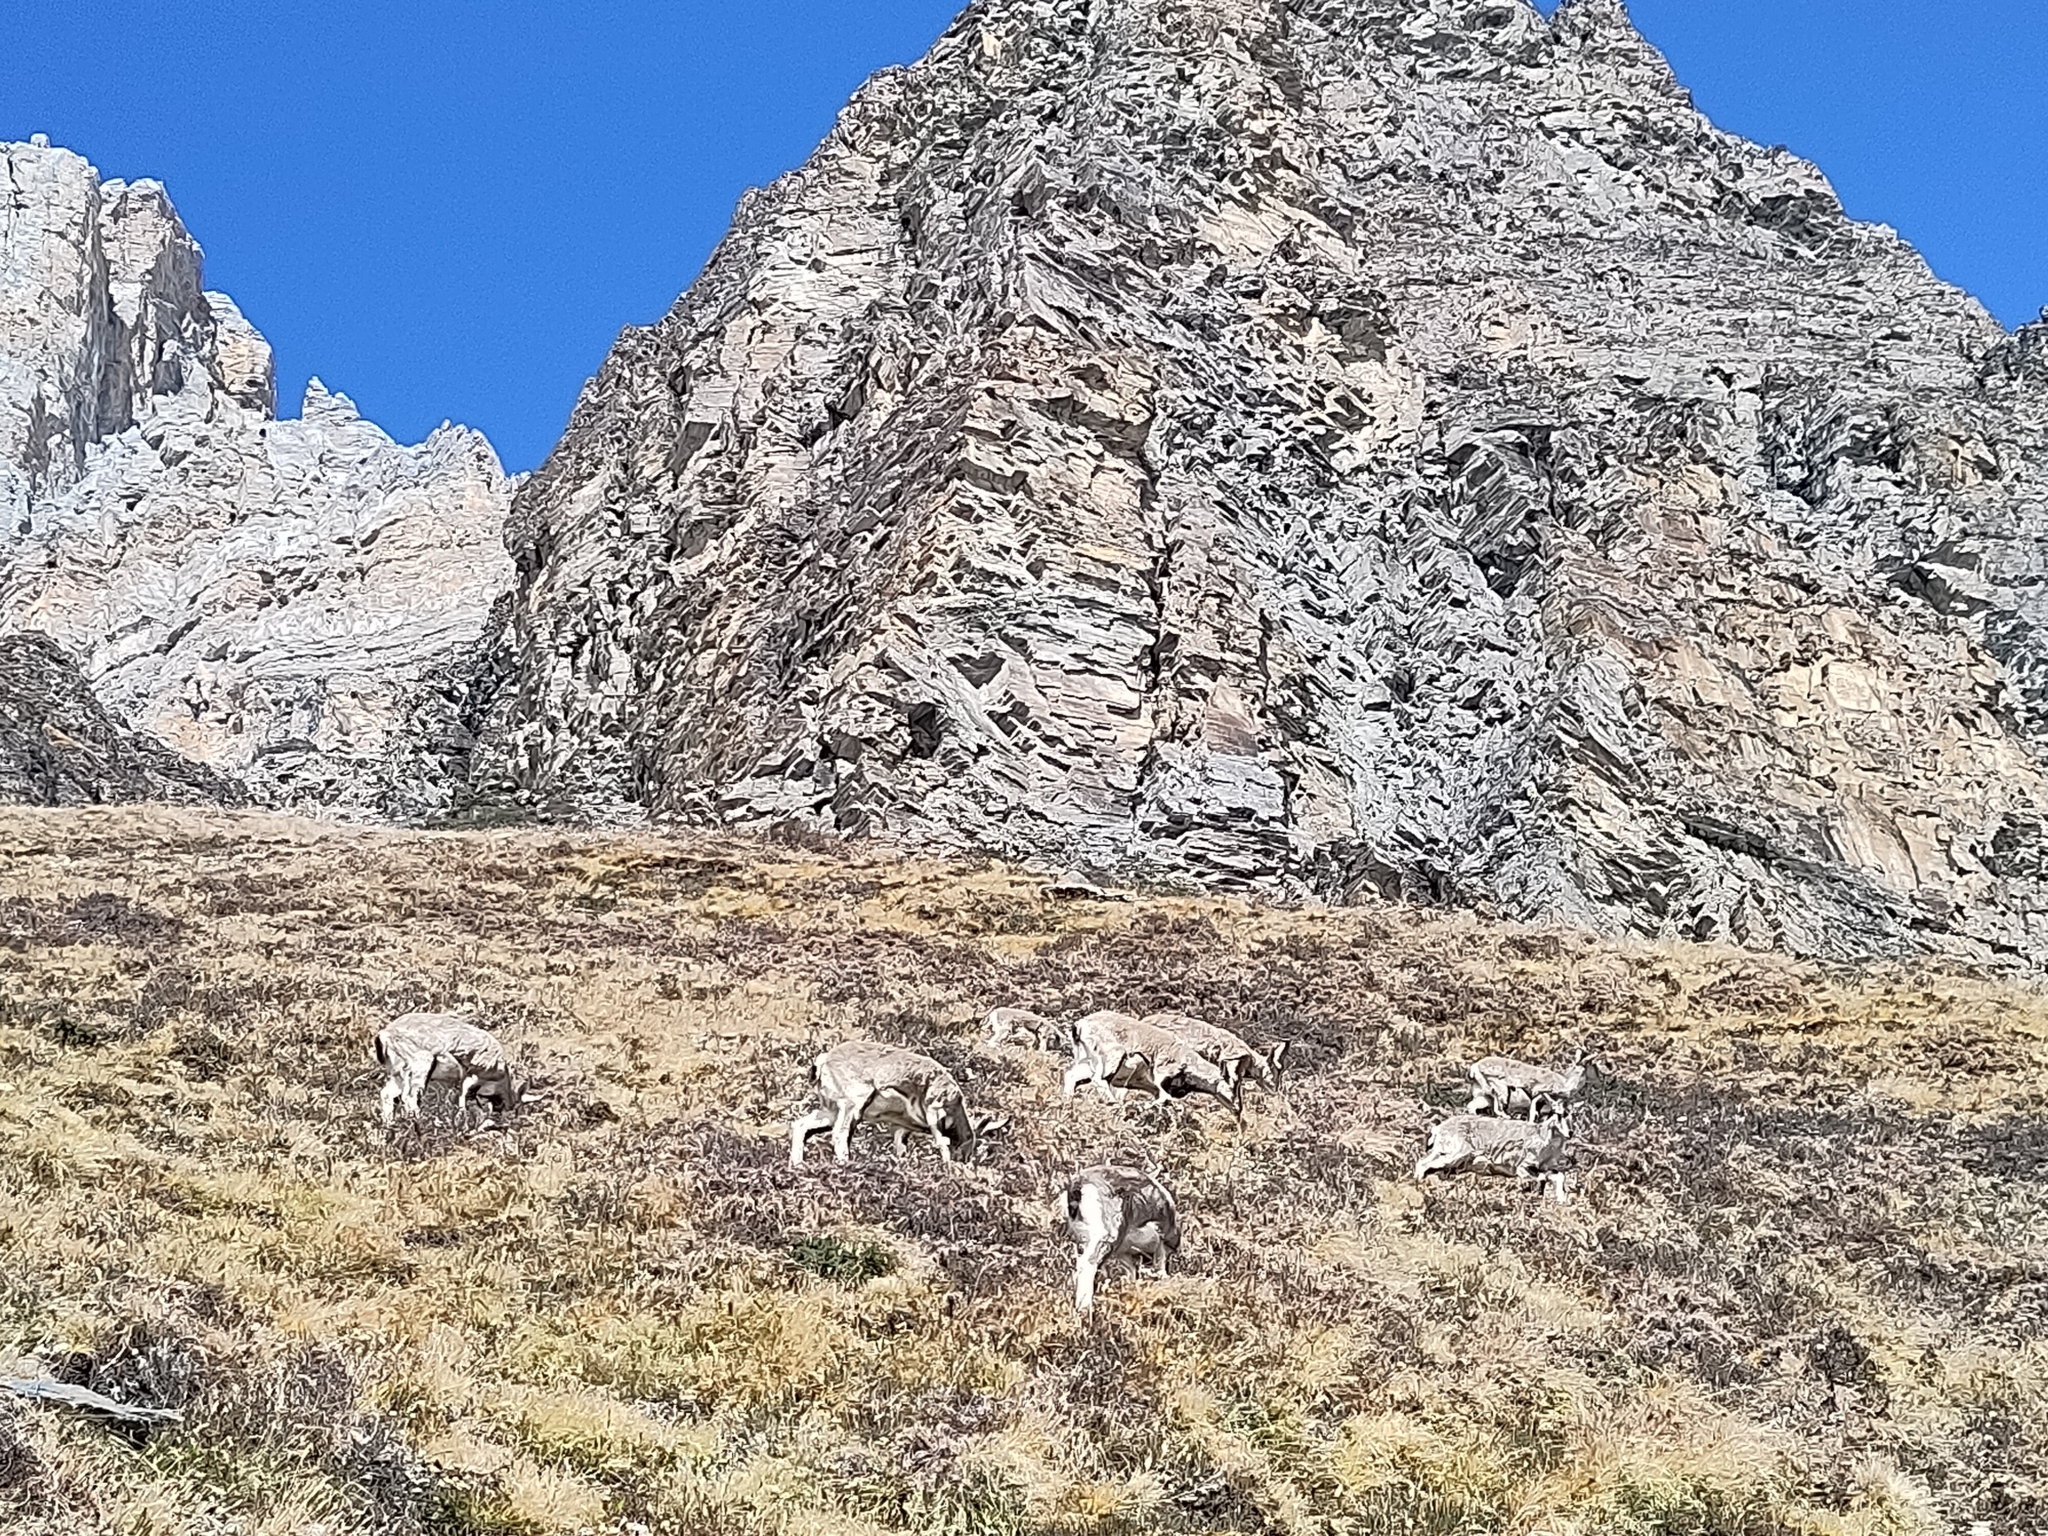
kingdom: Animalia
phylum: Chordata
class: Mammalia
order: Artiodactyla
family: Bovidae
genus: Pseudois
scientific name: Pseudois nayaur
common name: Bharal
